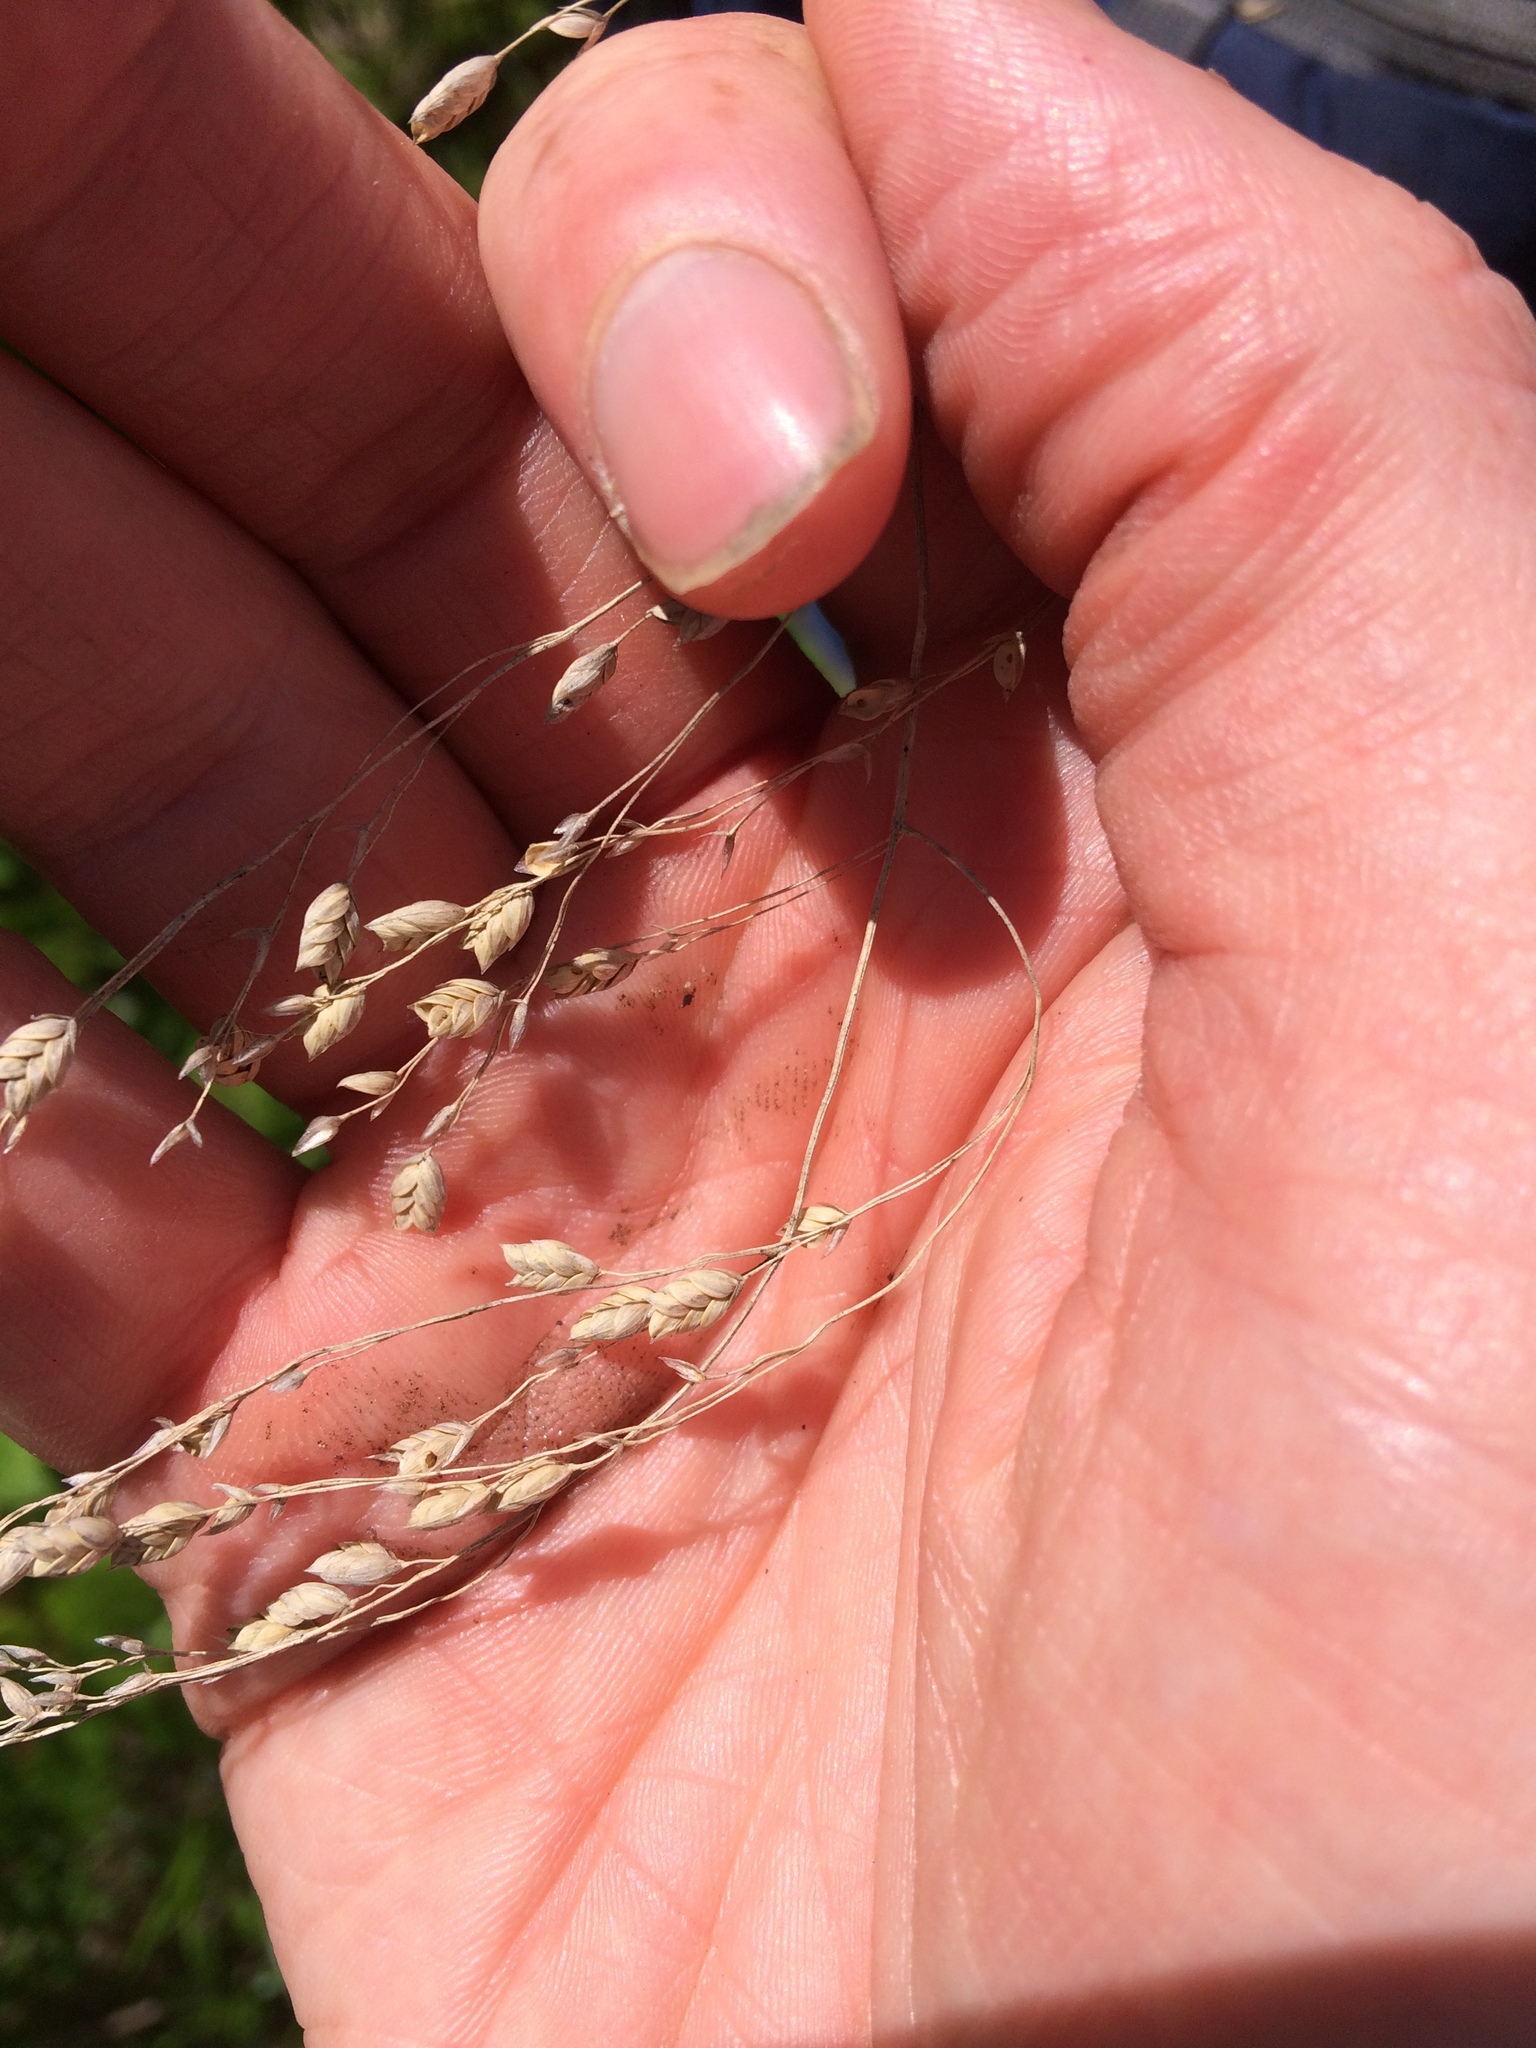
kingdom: Plantae
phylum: Tracheophyta
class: Liliopsida
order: Poales
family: Poaceae
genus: Glyceria
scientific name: Glyceria canadensis
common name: Canada mannagrass
